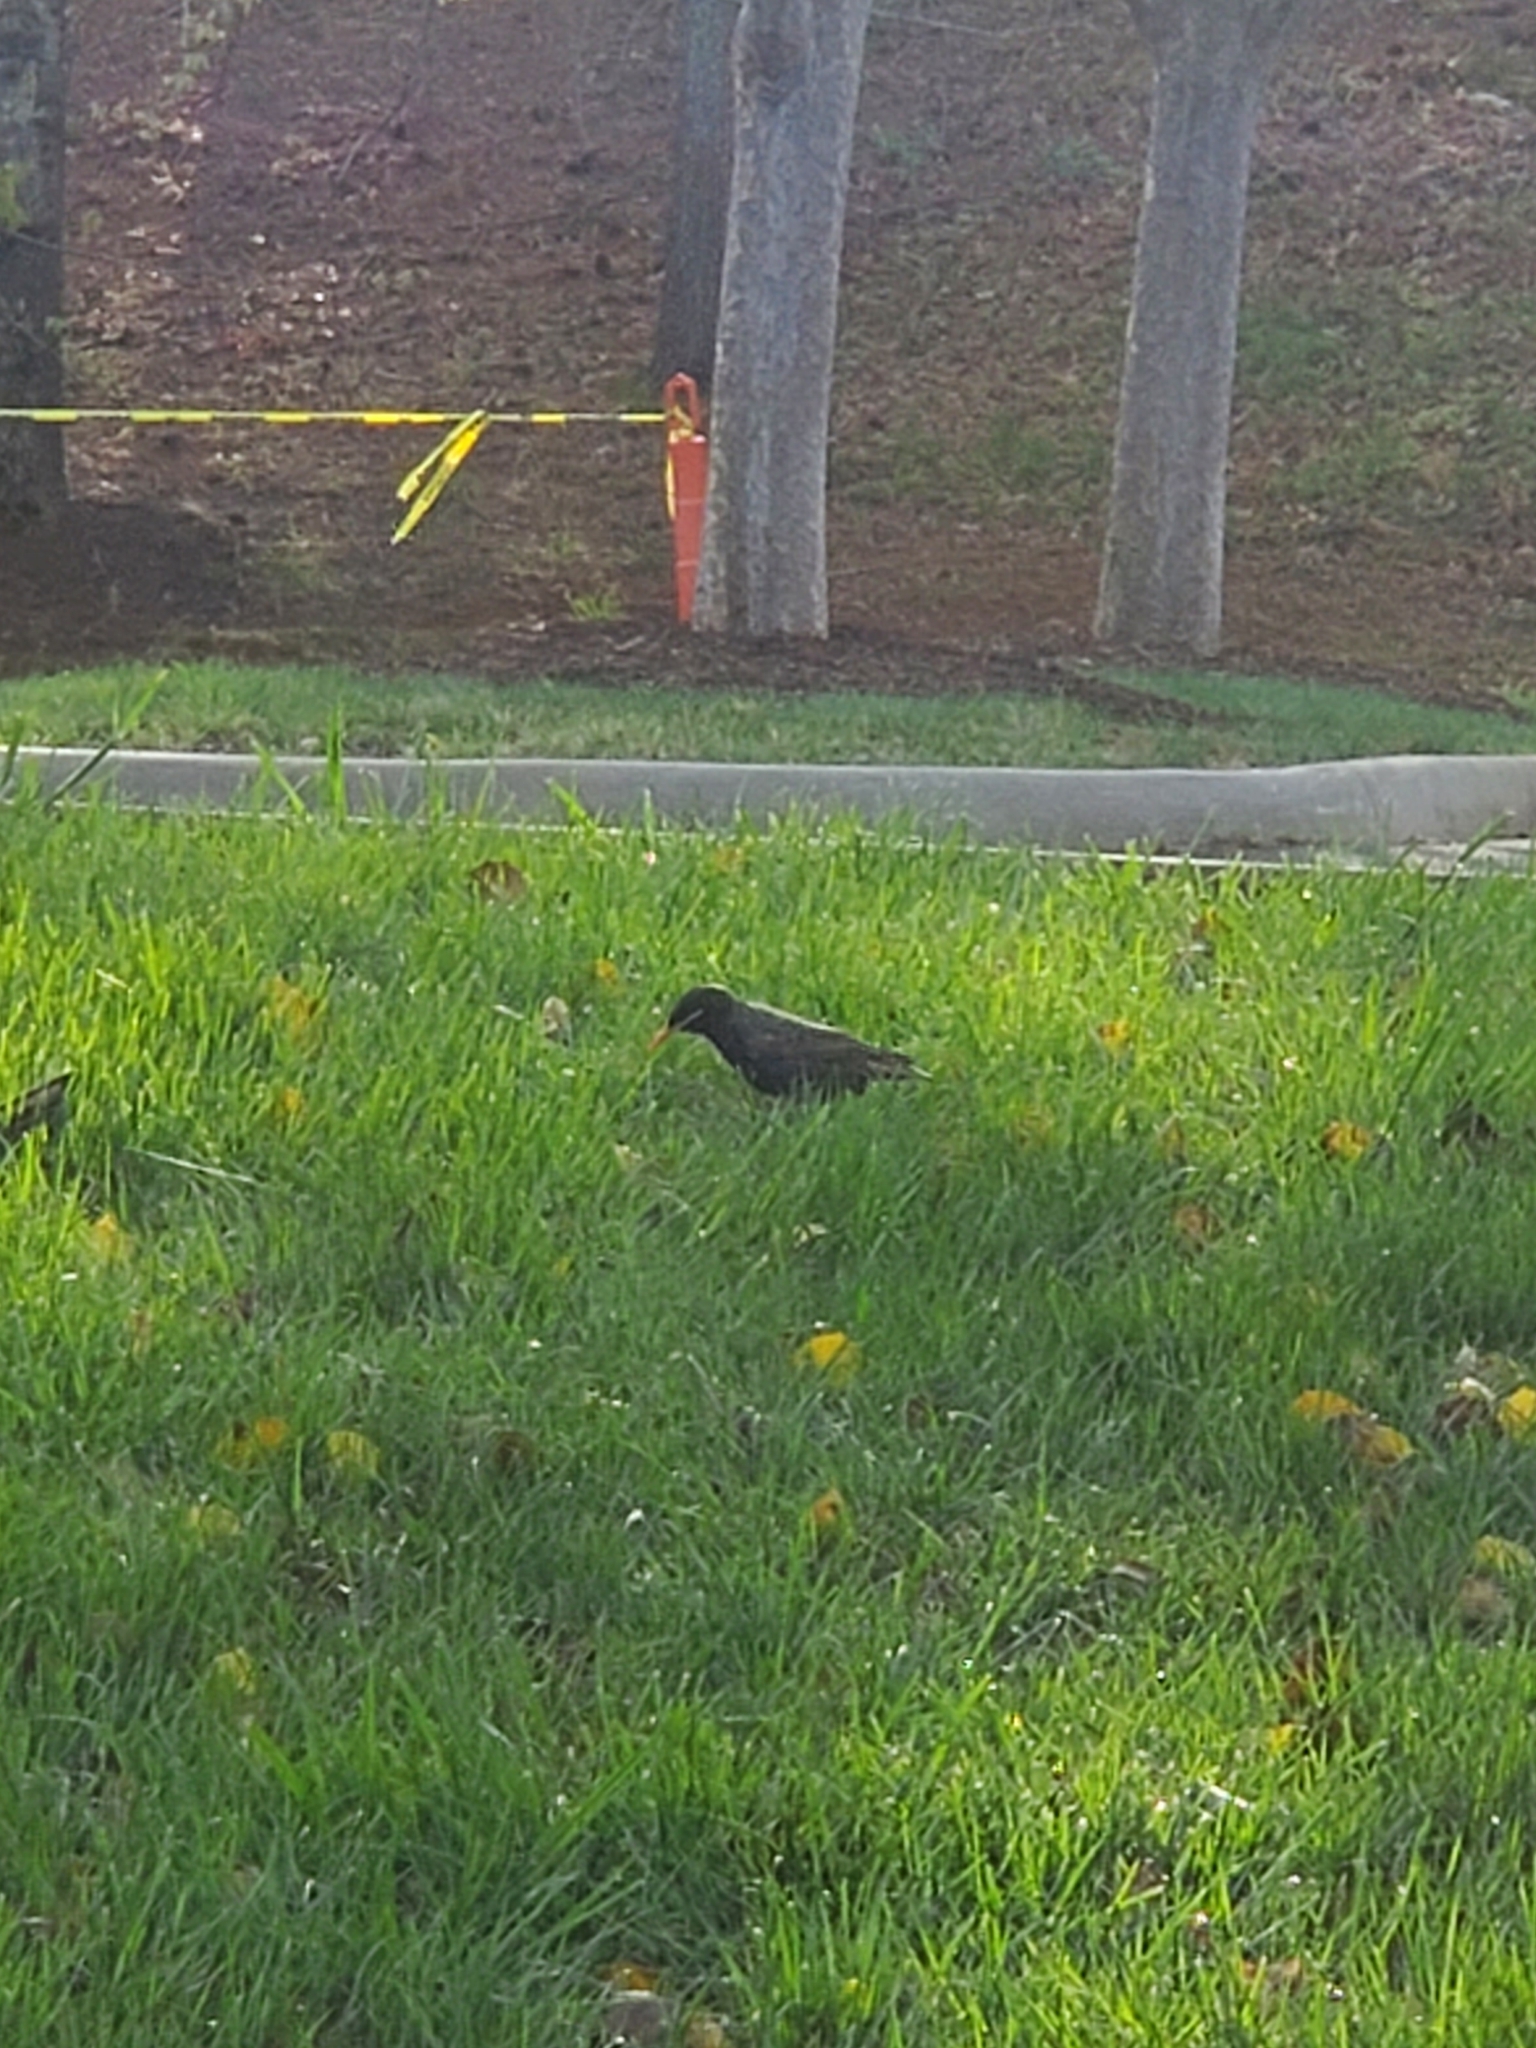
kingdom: Animalia
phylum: Chordata
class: Aves
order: Passeriformes
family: Sturnidae
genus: Sturnus
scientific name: Sturnus vulgaris
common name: Common starling
